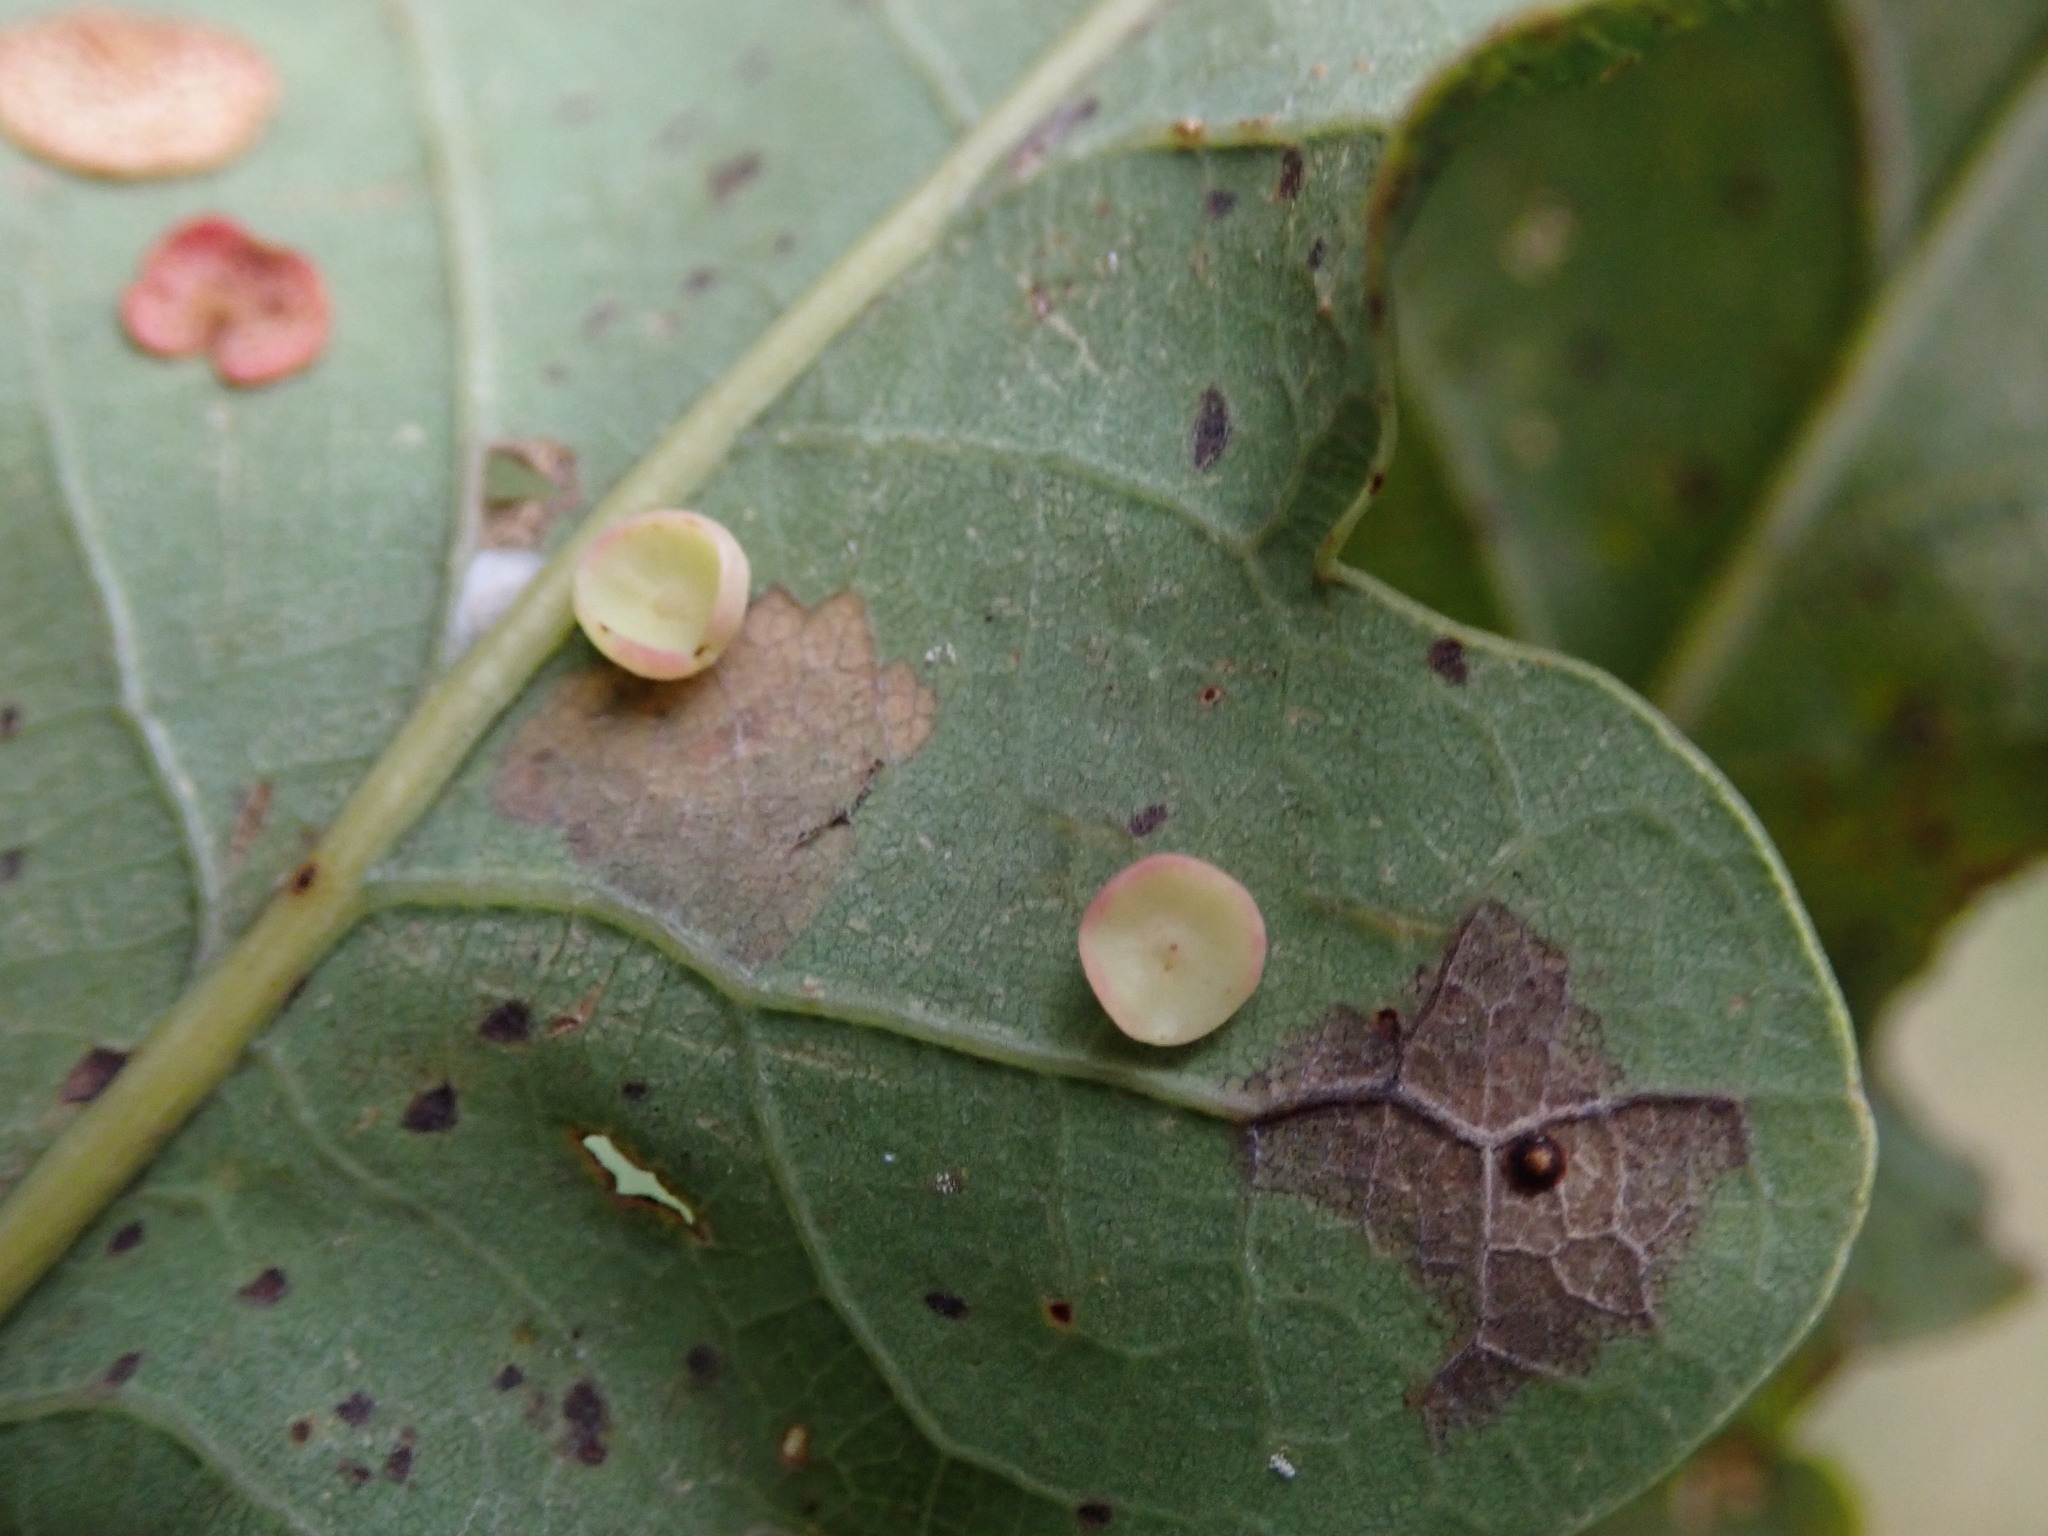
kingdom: Animalia
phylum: Arthropoda
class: Insecta
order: Hymenoptera
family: Cynipidae
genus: Neuroterus
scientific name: Neuroterus albipes
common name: Smooth spangle gall
